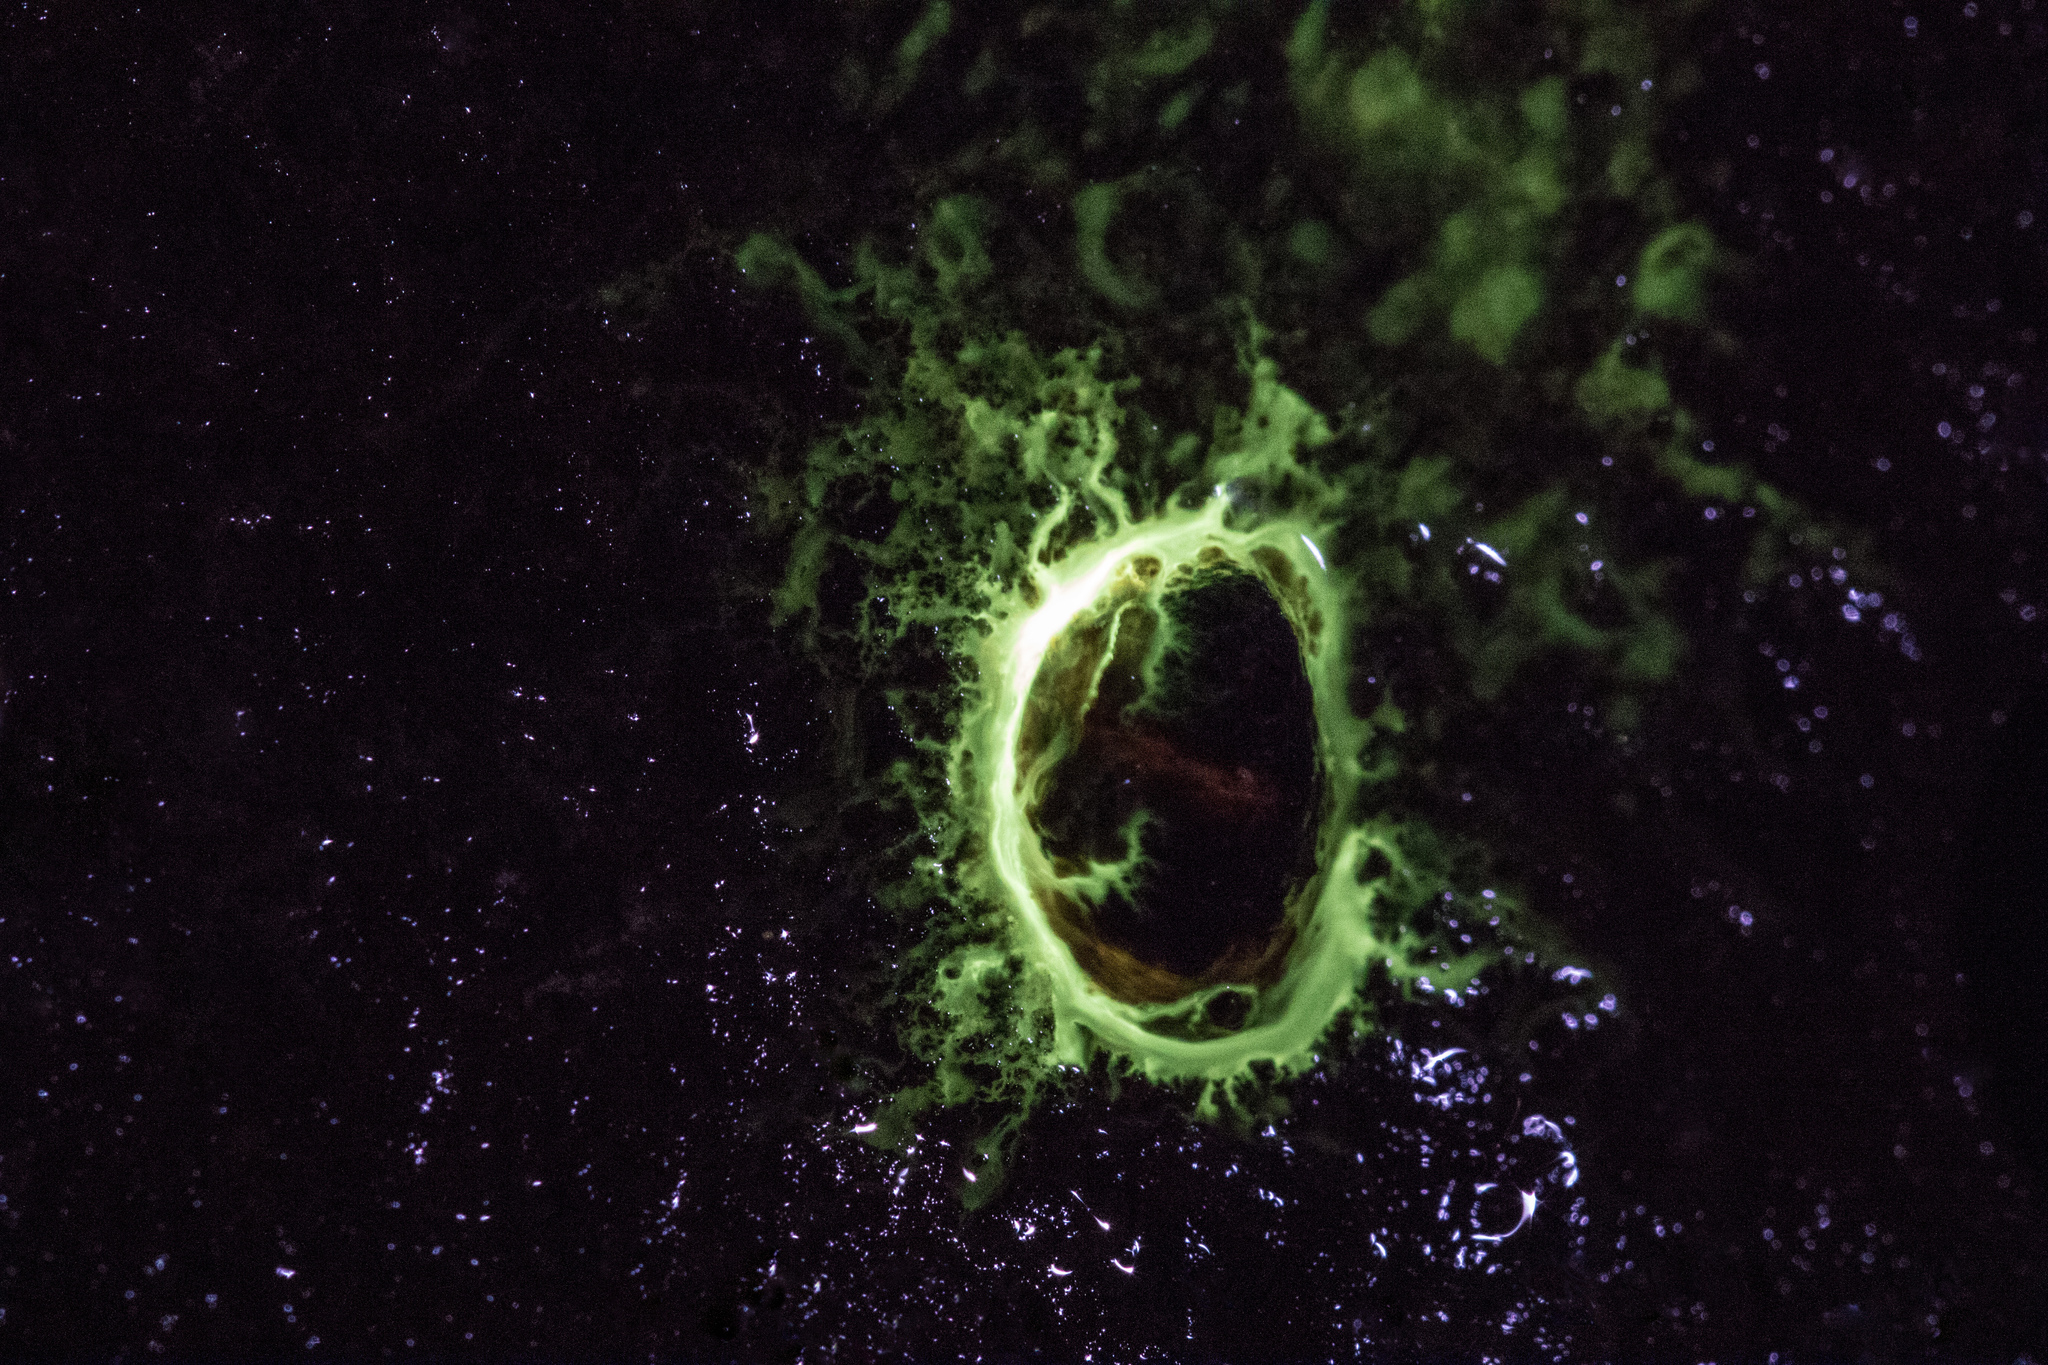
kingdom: Animalia
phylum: Mollusca
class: Gastropoda
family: Latiidae
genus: Latia
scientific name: Latia neritoides
